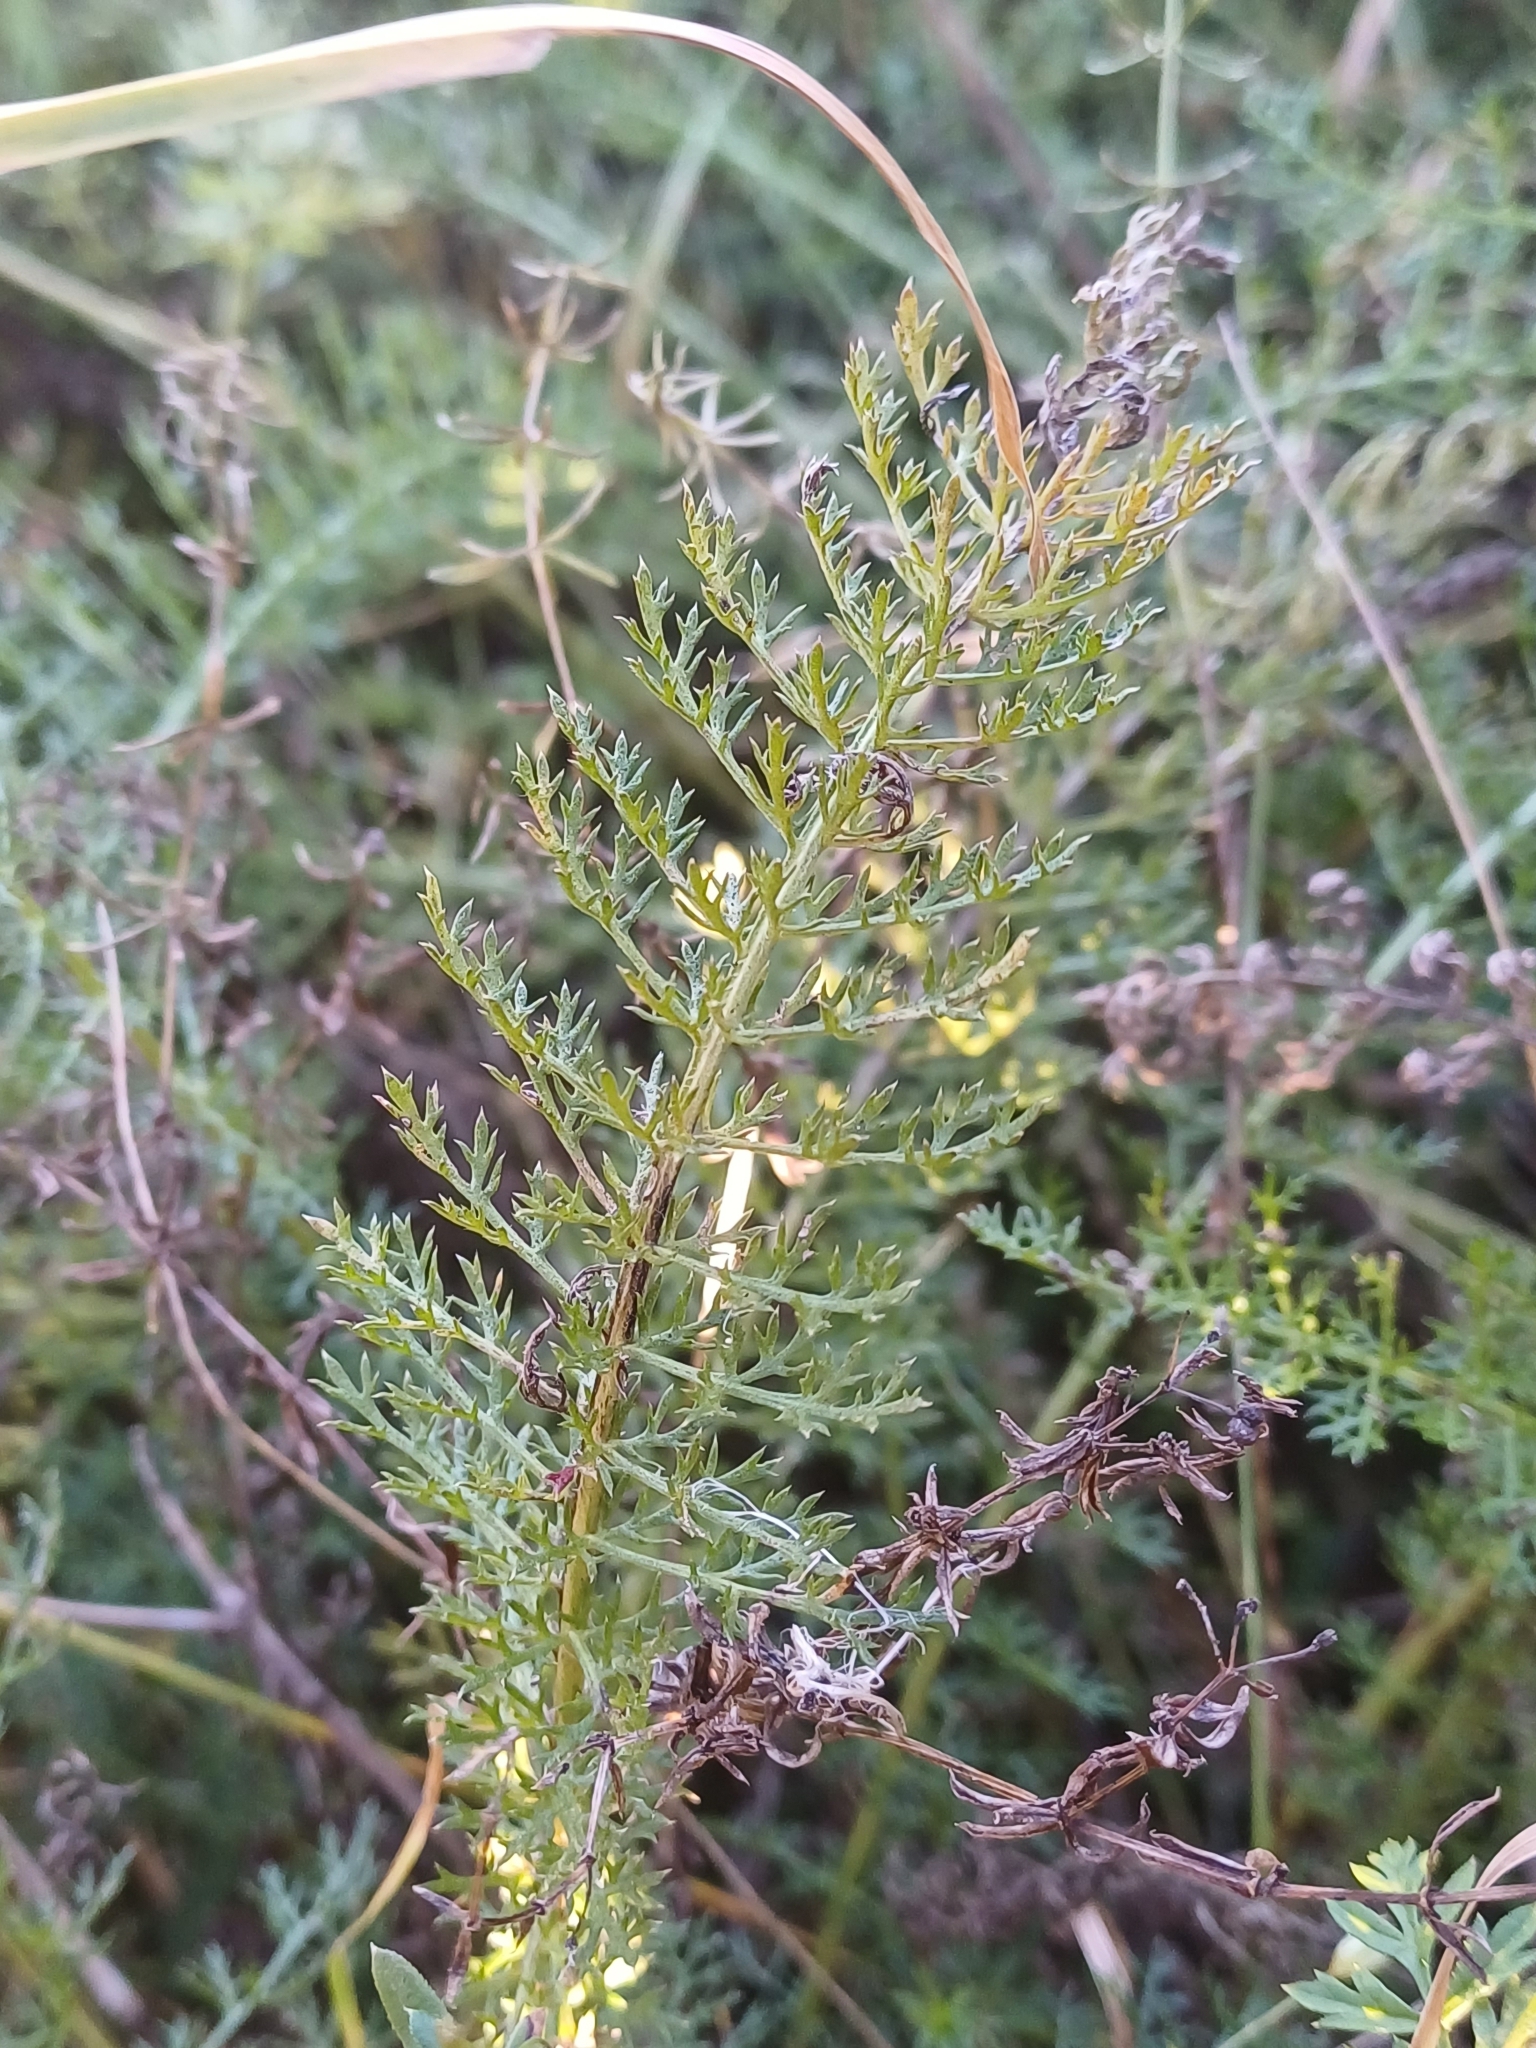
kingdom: Plantae
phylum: Tracheophyta
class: Magnoliopsida
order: Asterales
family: Asteraceae
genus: Achillea
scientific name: Achillea millefolium
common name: Yarrow
